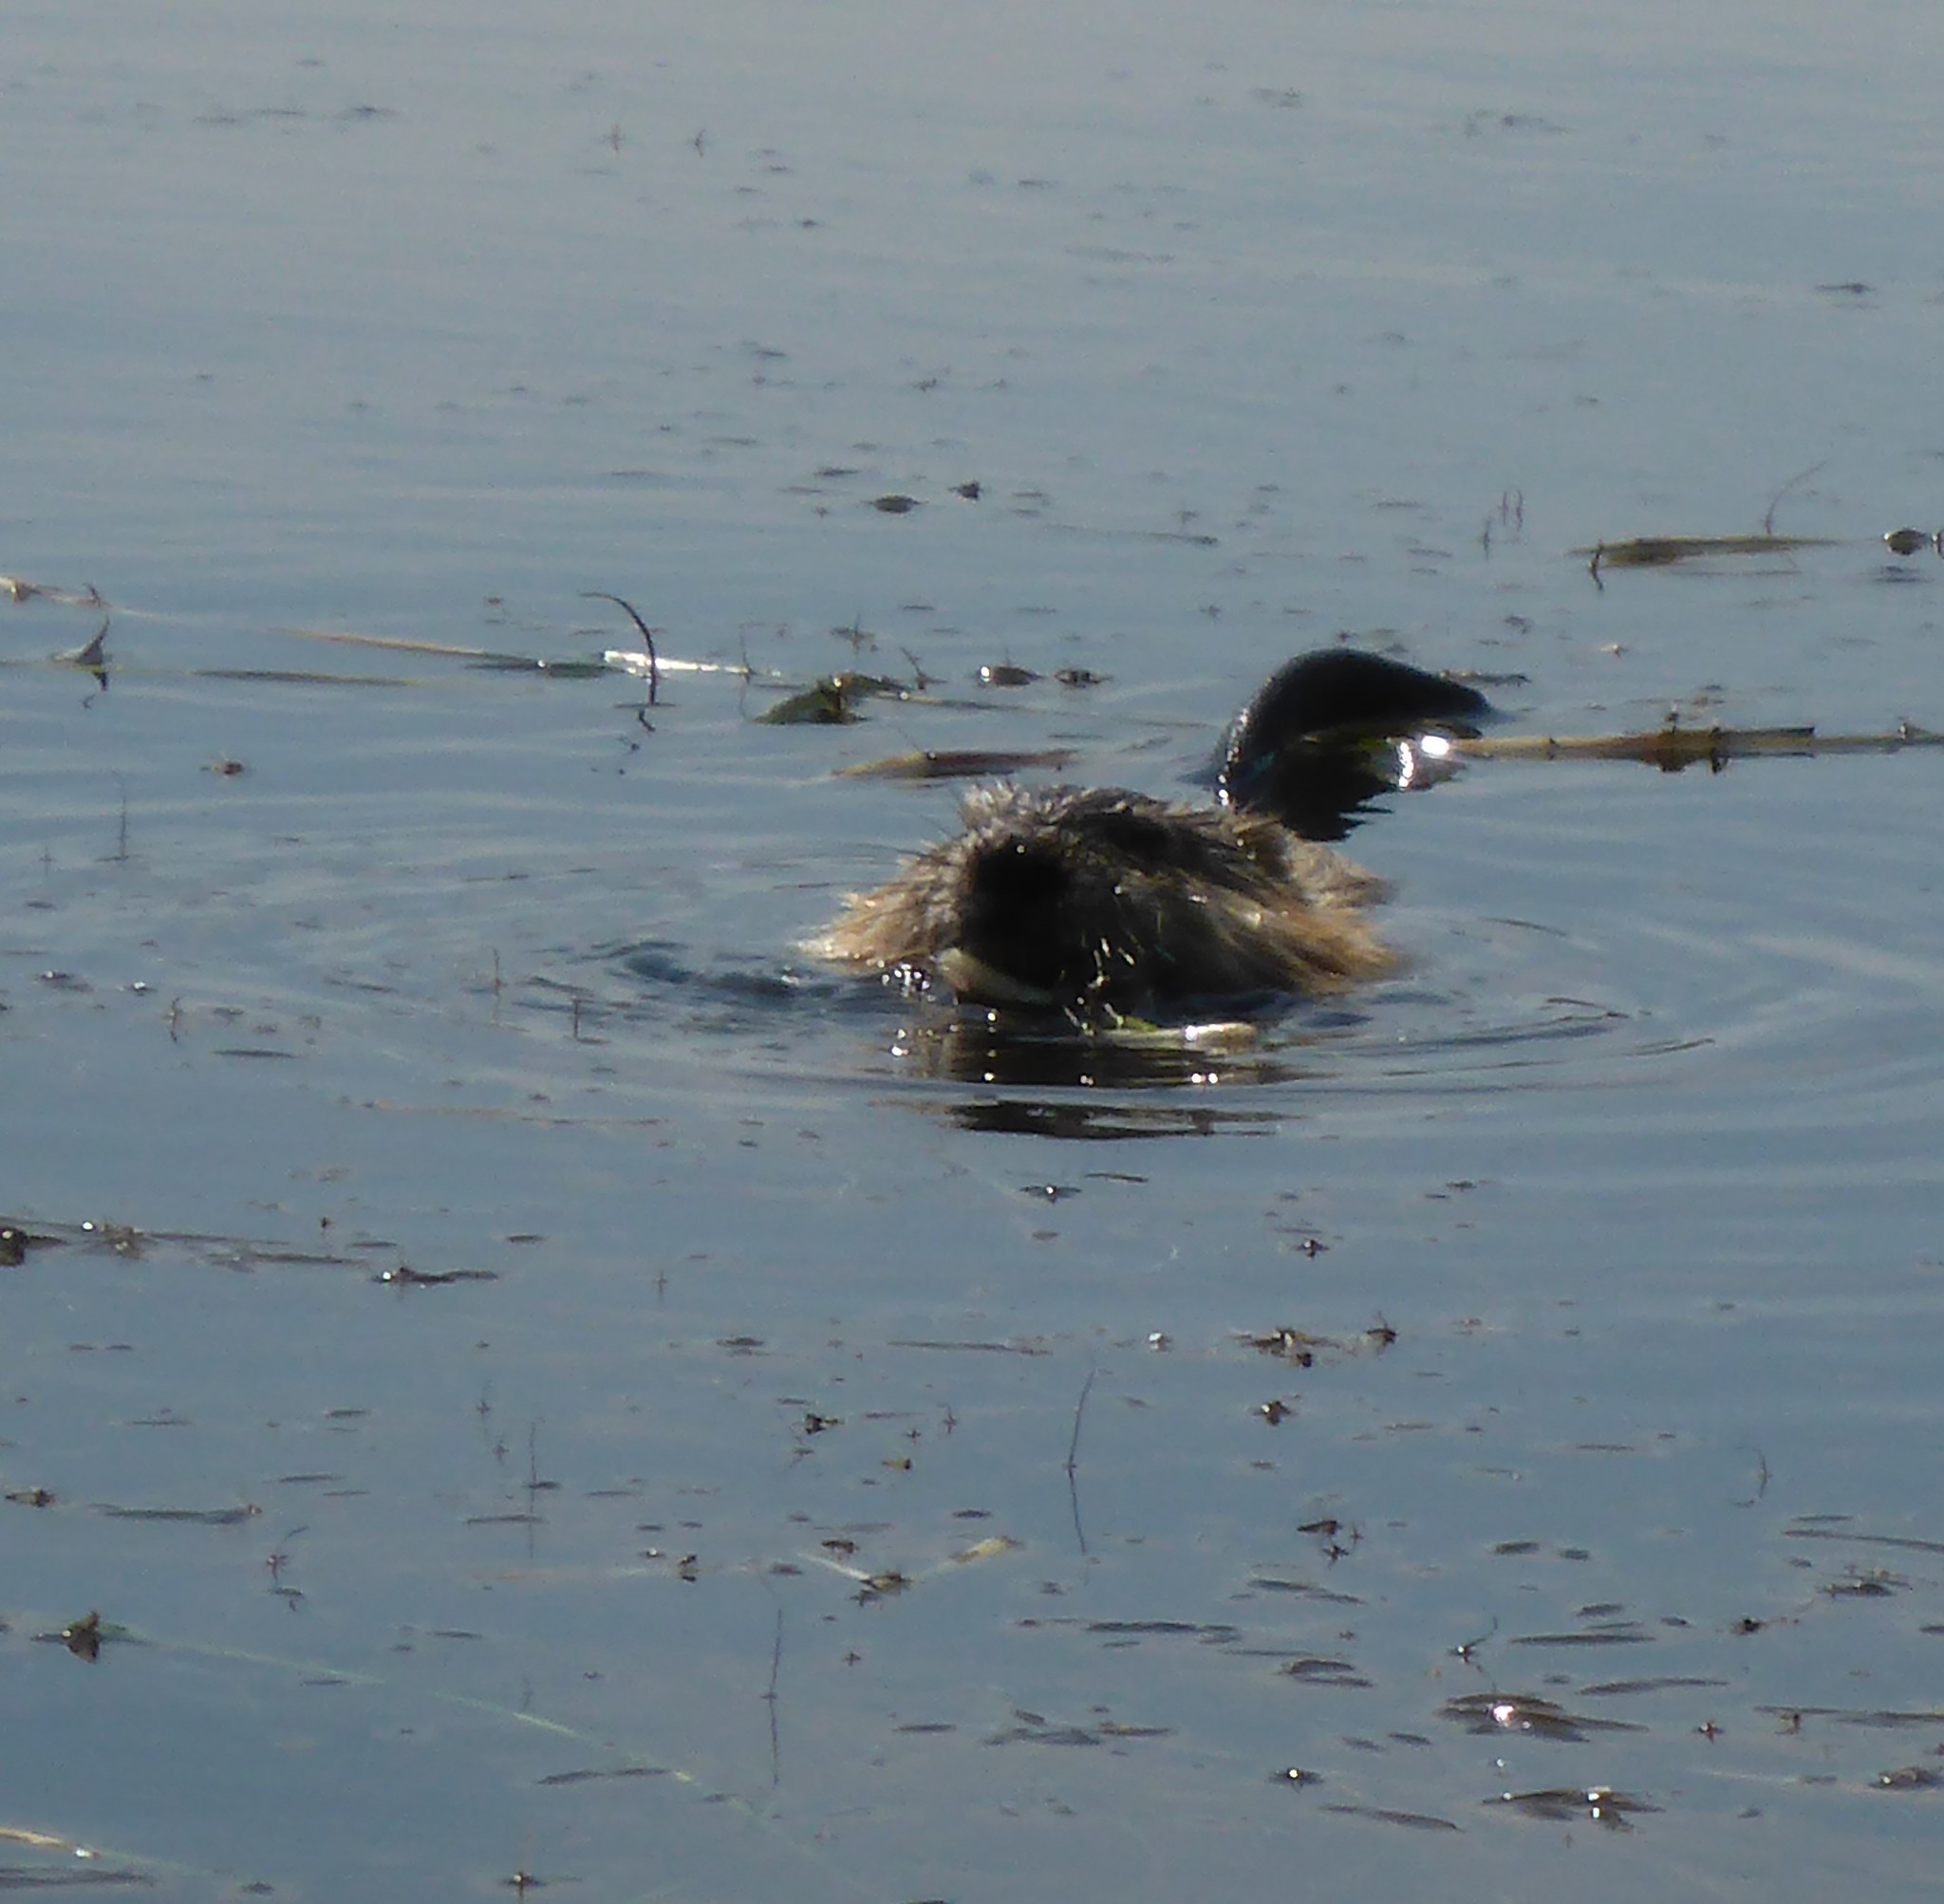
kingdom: Animalia
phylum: Chordata
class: Mammalia
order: Rodentia
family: Cricetidae
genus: Ondatra
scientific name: Ondatra zibethicus
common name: Muskrat
